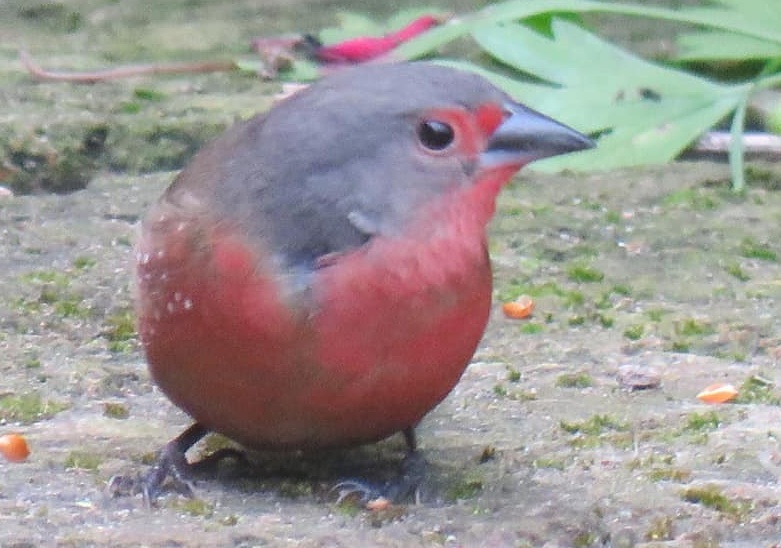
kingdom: Animalia
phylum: Chordata
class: Aves
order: Passeriformes
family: Estrildidae
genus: Lagonosticta
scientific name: Lagonosticta rubricata
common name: African firefinch
